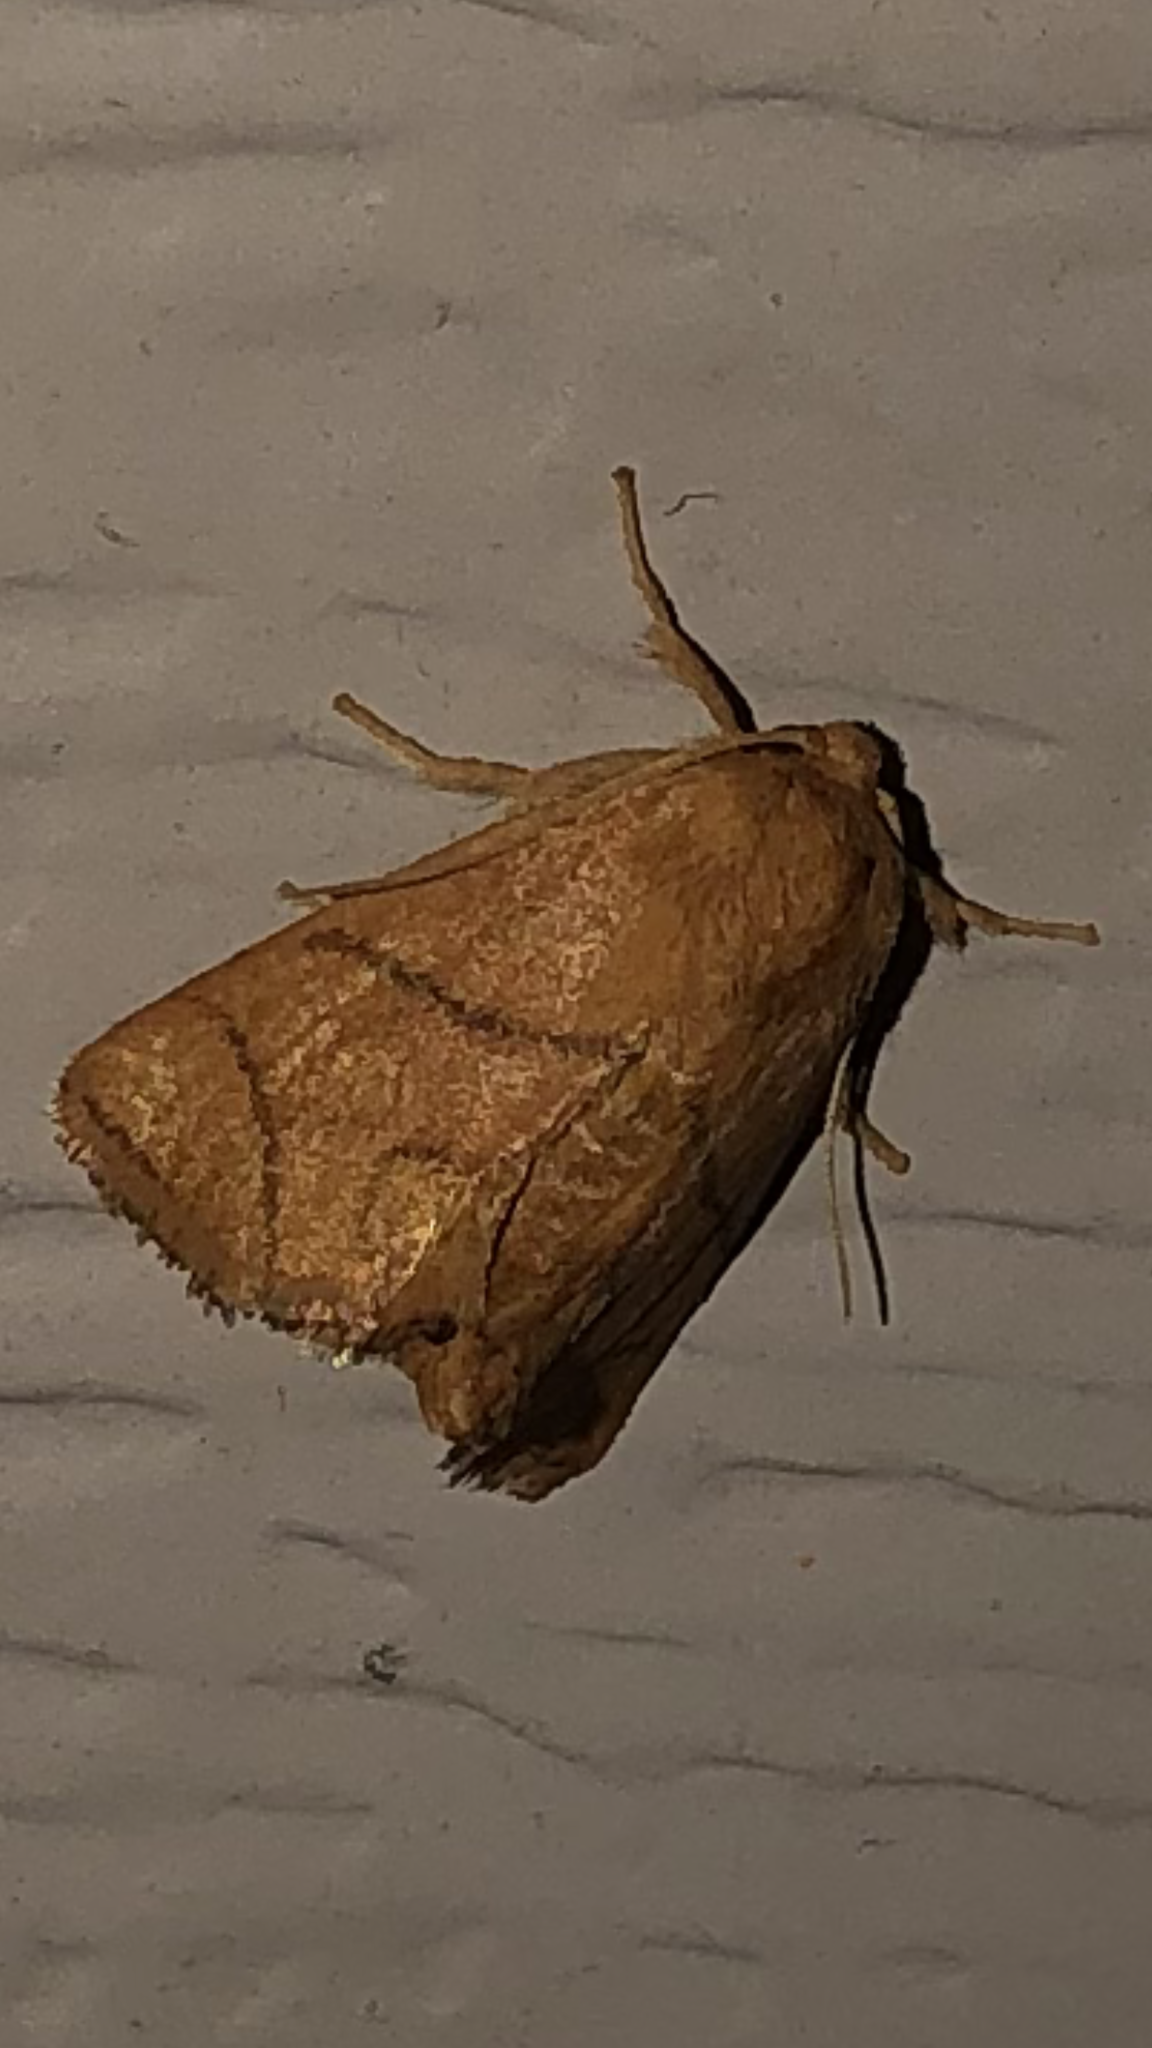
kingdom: Animalia
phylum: Arthropoda
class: Insecta
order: Lepidoptera
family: Limacodidae
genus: Apoda
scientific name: Apoda y-inversa
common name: Yellow-collared slug moth
